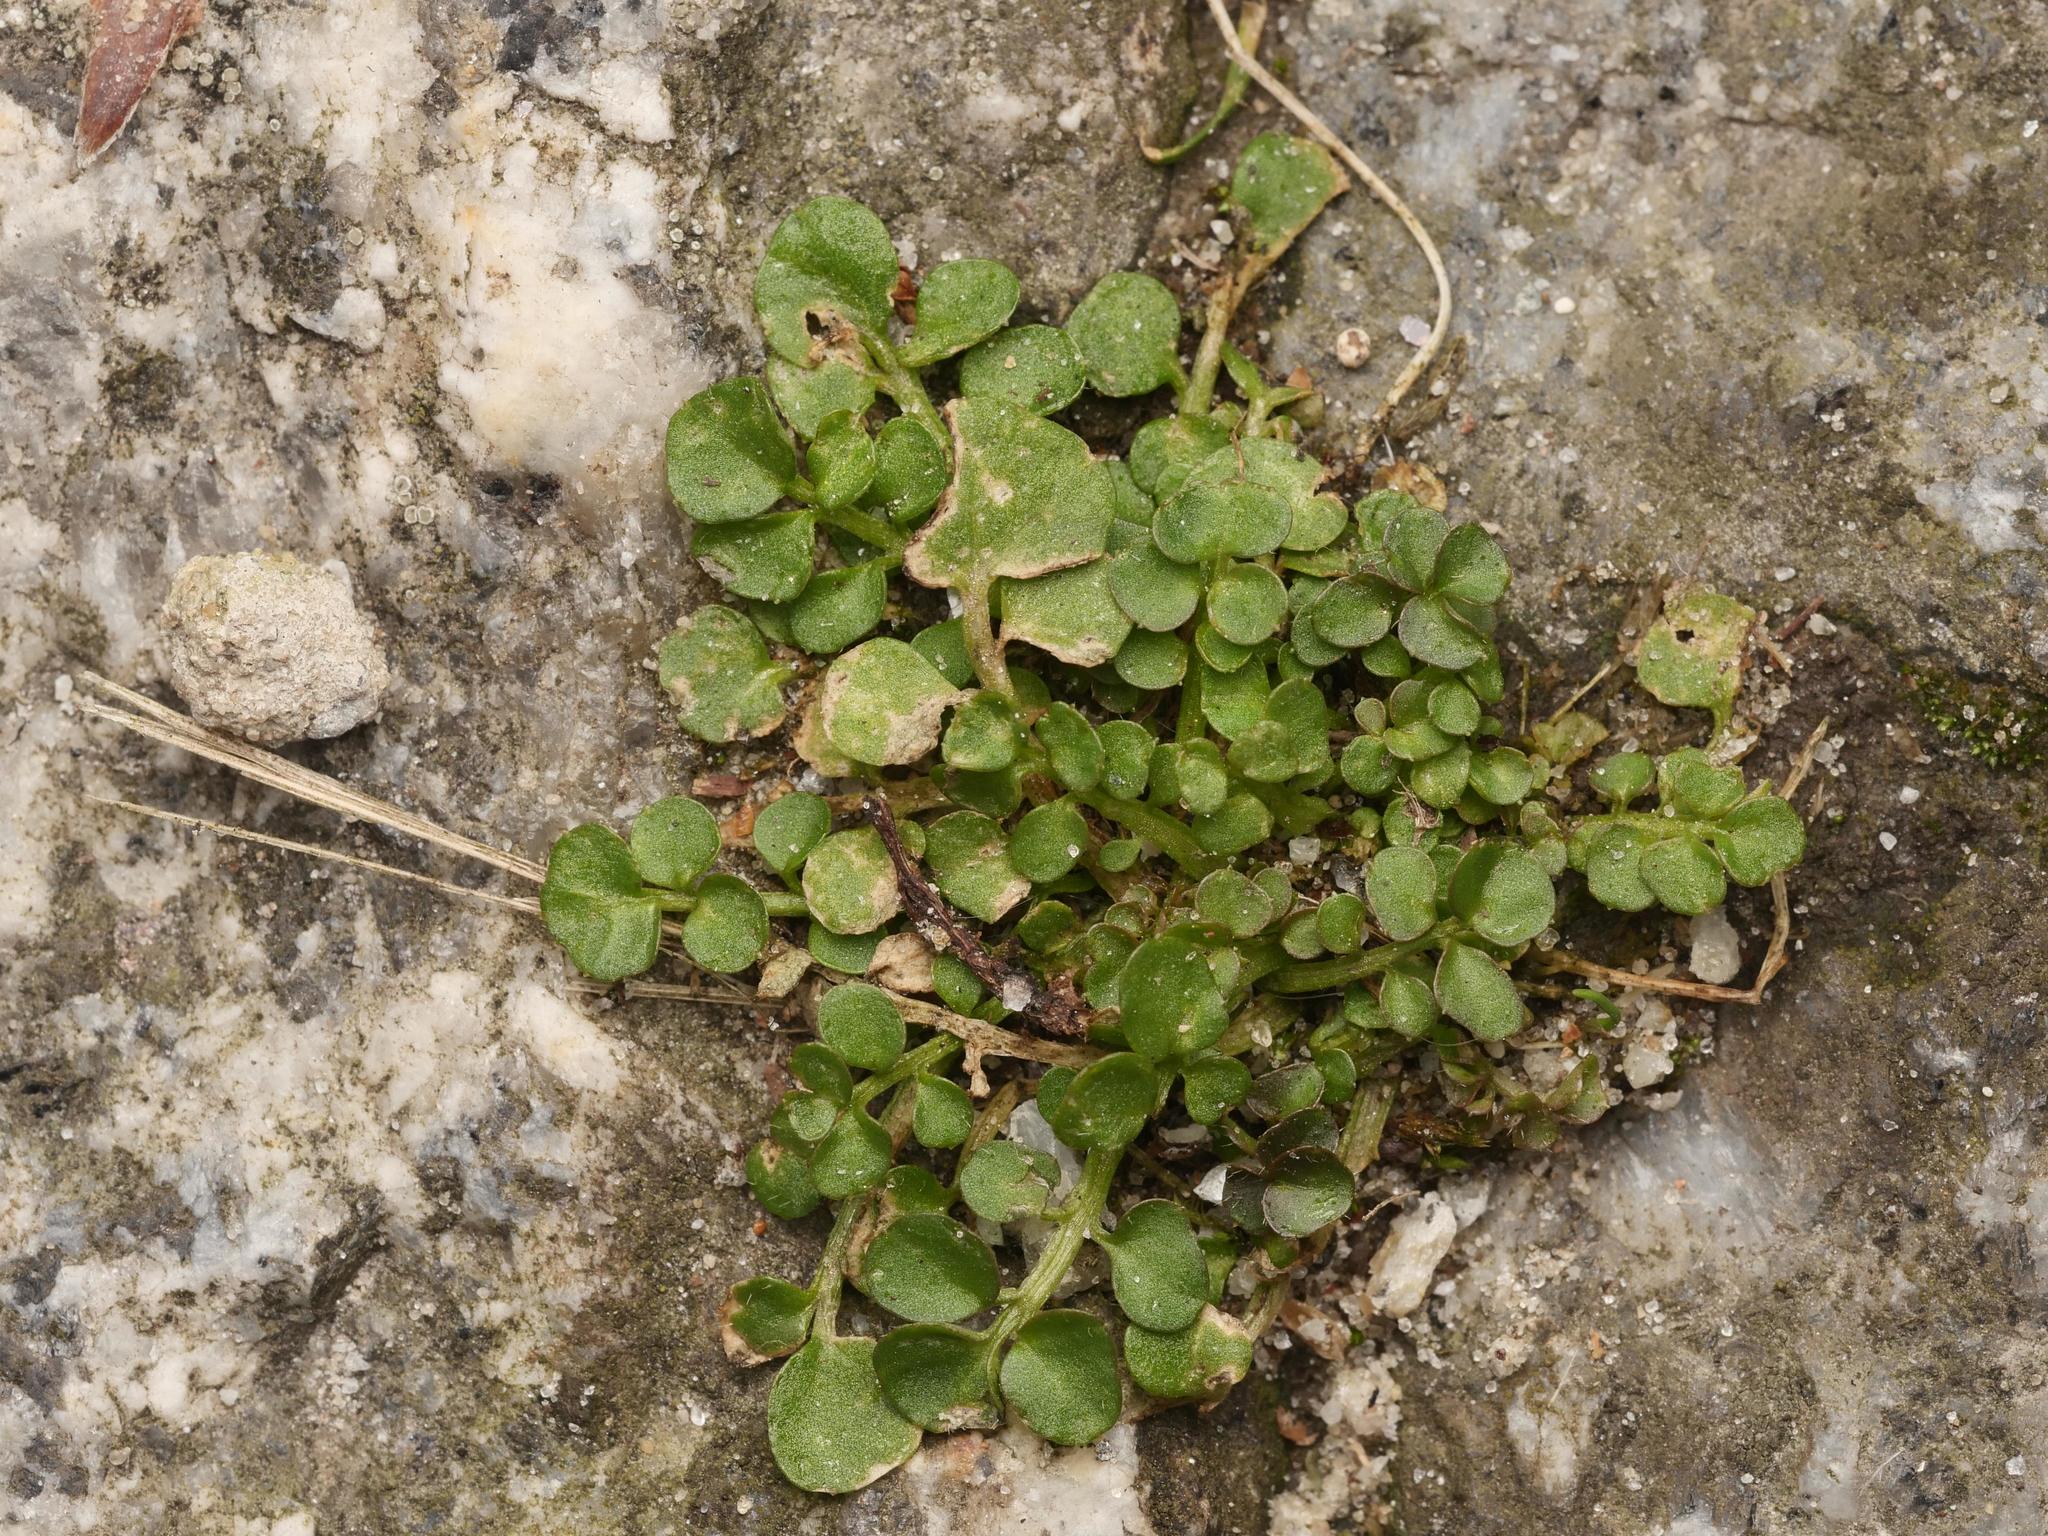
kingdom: Plantae
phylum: Tracheophyta
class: Magnoliopsida
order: Brassicales
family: Brassicaceae
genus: Cardamine
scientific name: Cardamine hirsuta
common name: Hairy bittercress
